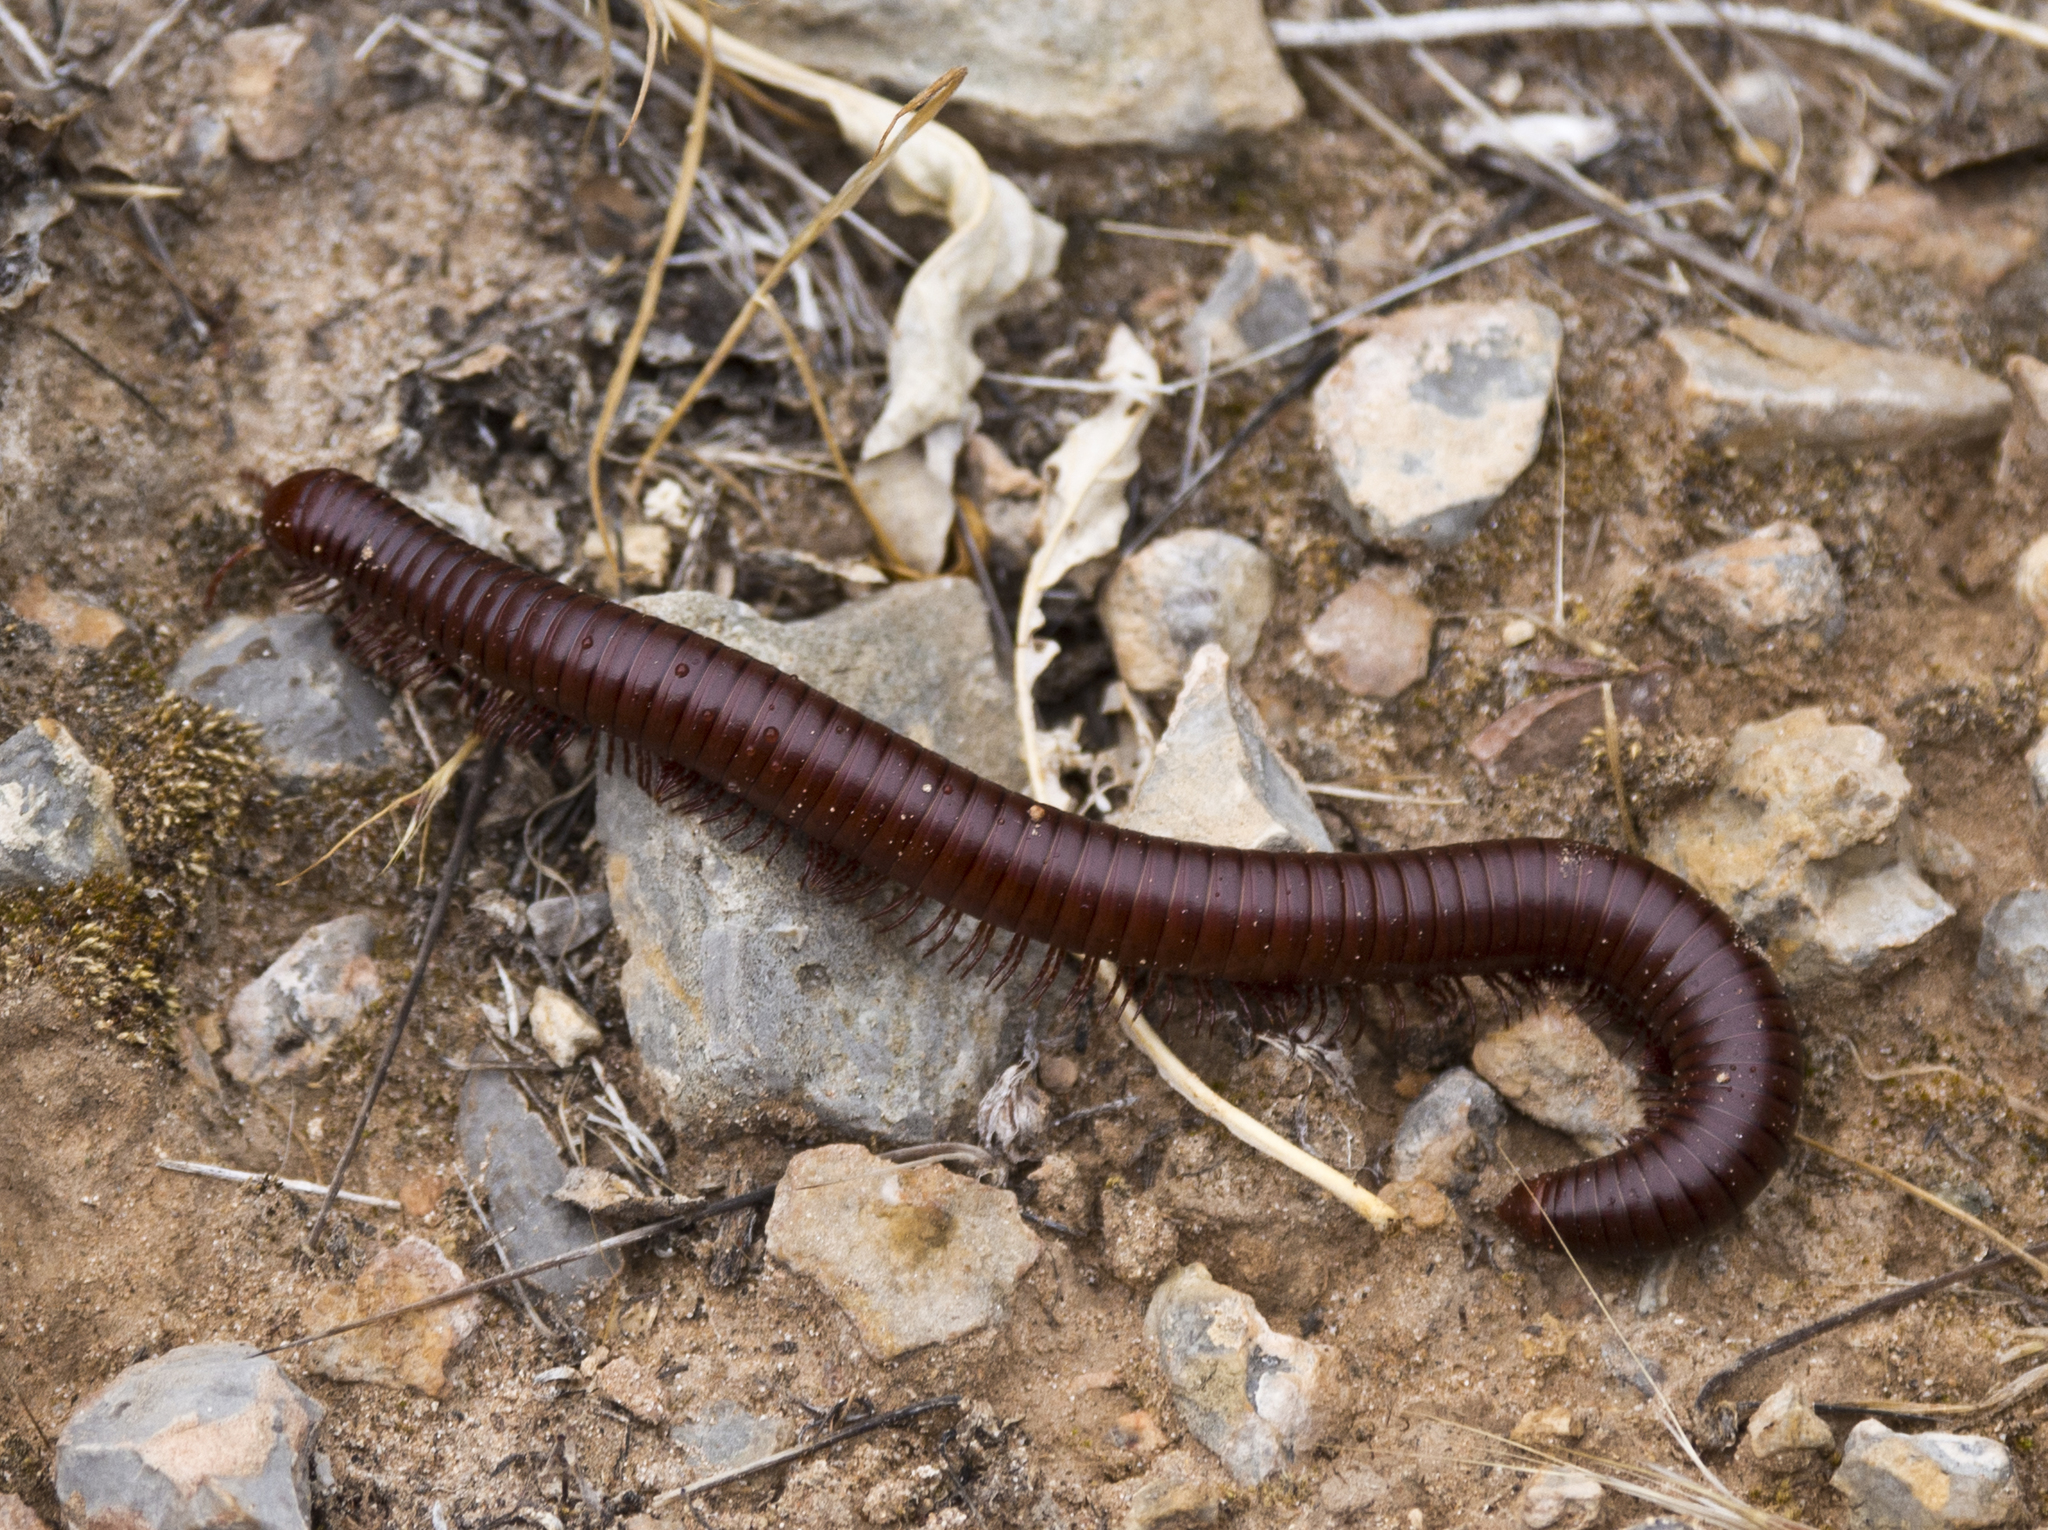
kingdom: Animalia
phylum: Arthropoda
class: Diplopoda
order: Spirostreptida
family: Spirostreptidae
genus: Orthoporus
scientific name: Orthoporus ornatus
